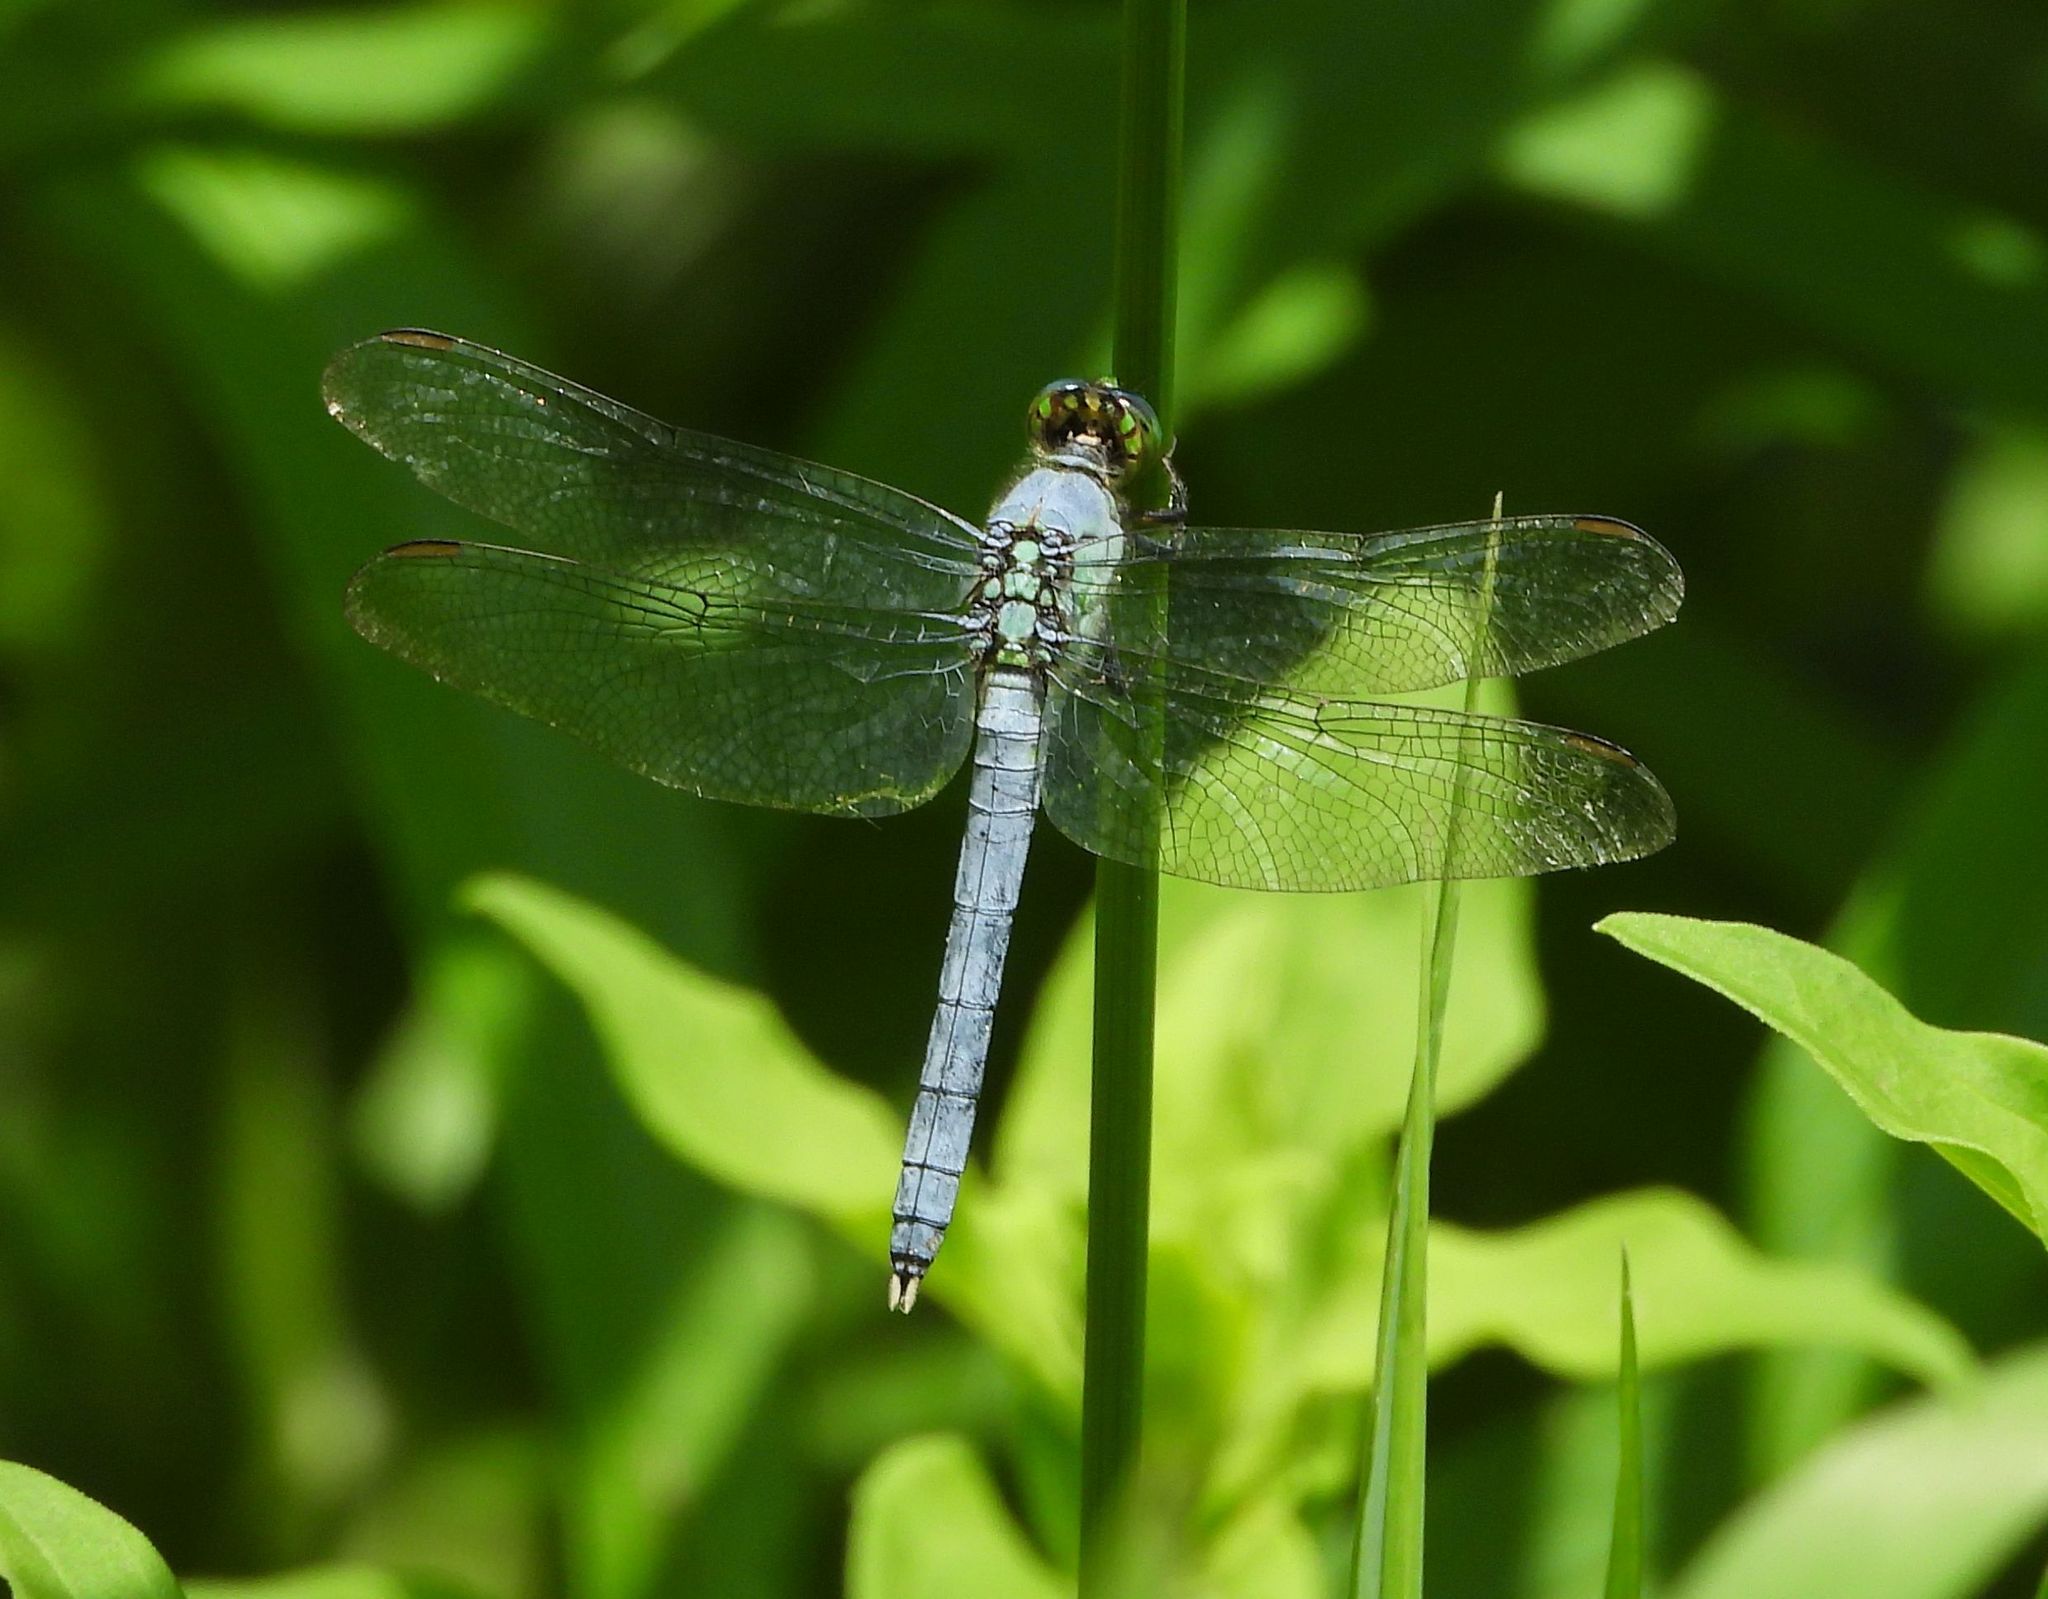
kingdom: Animalia
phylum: Arthropoda
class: Insecta
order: Odonata
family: Libellulidae
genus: Erythemis
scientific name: Erythemis simplicicollis
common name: Eastern pondhawk
